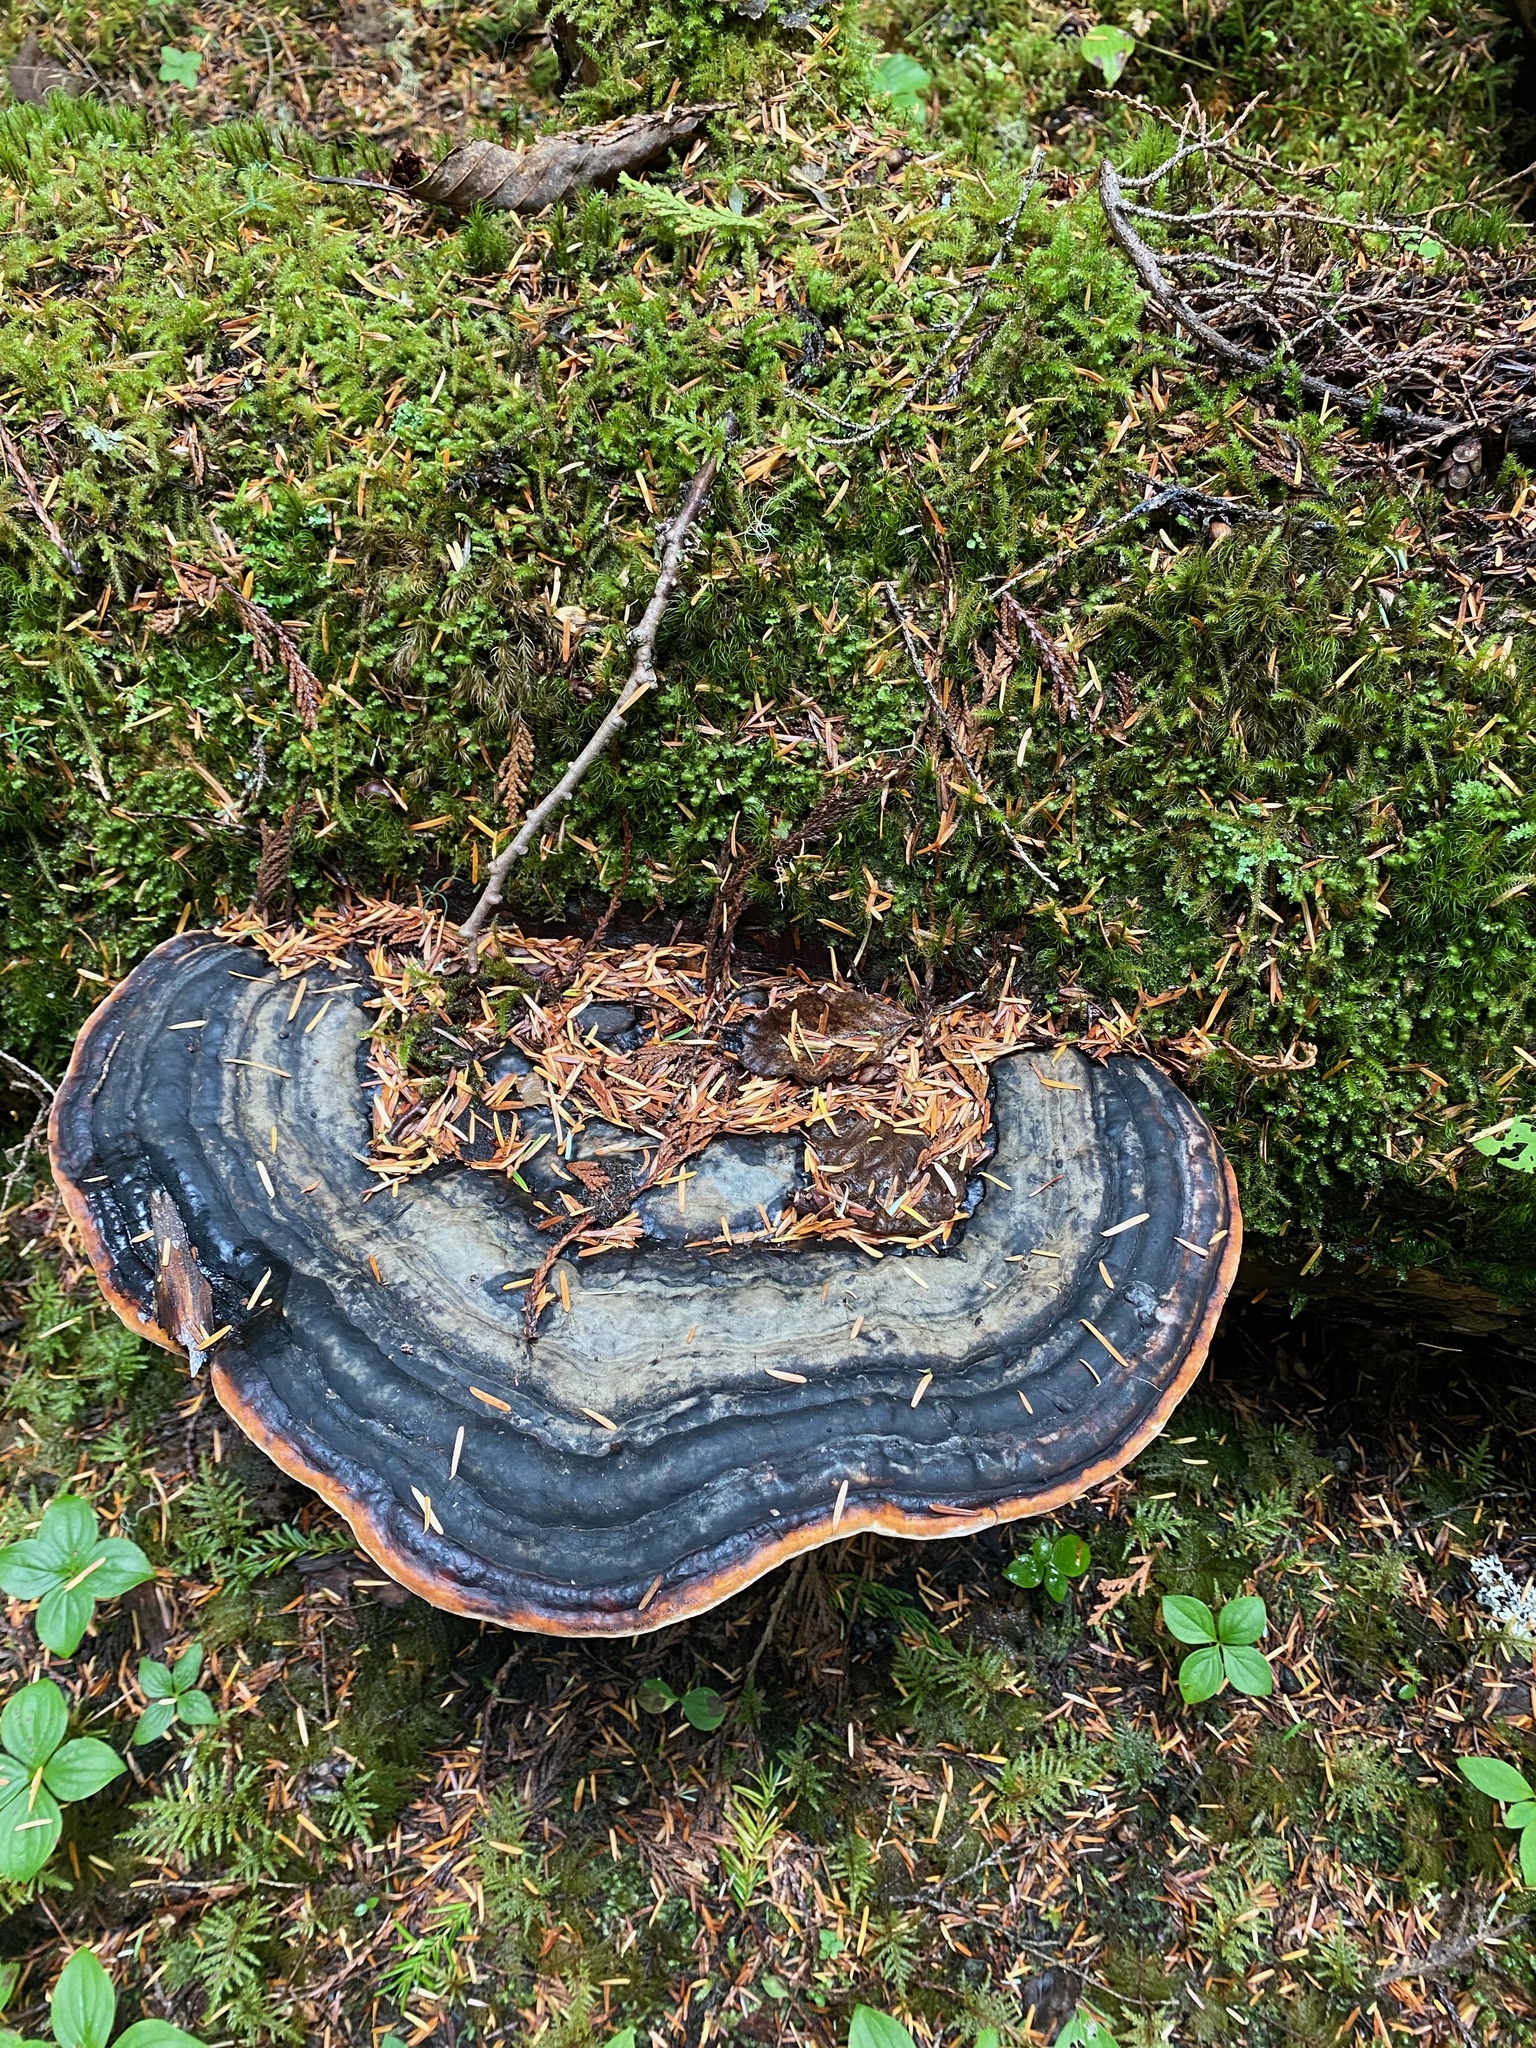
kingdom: Fungi
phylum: Basidiomycota
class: Agaricomycetes
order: Polyporales
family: Fomitopsidaceae
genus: Fomitopsis
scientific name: Fomitopsis mounceae
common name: Northern red belt
